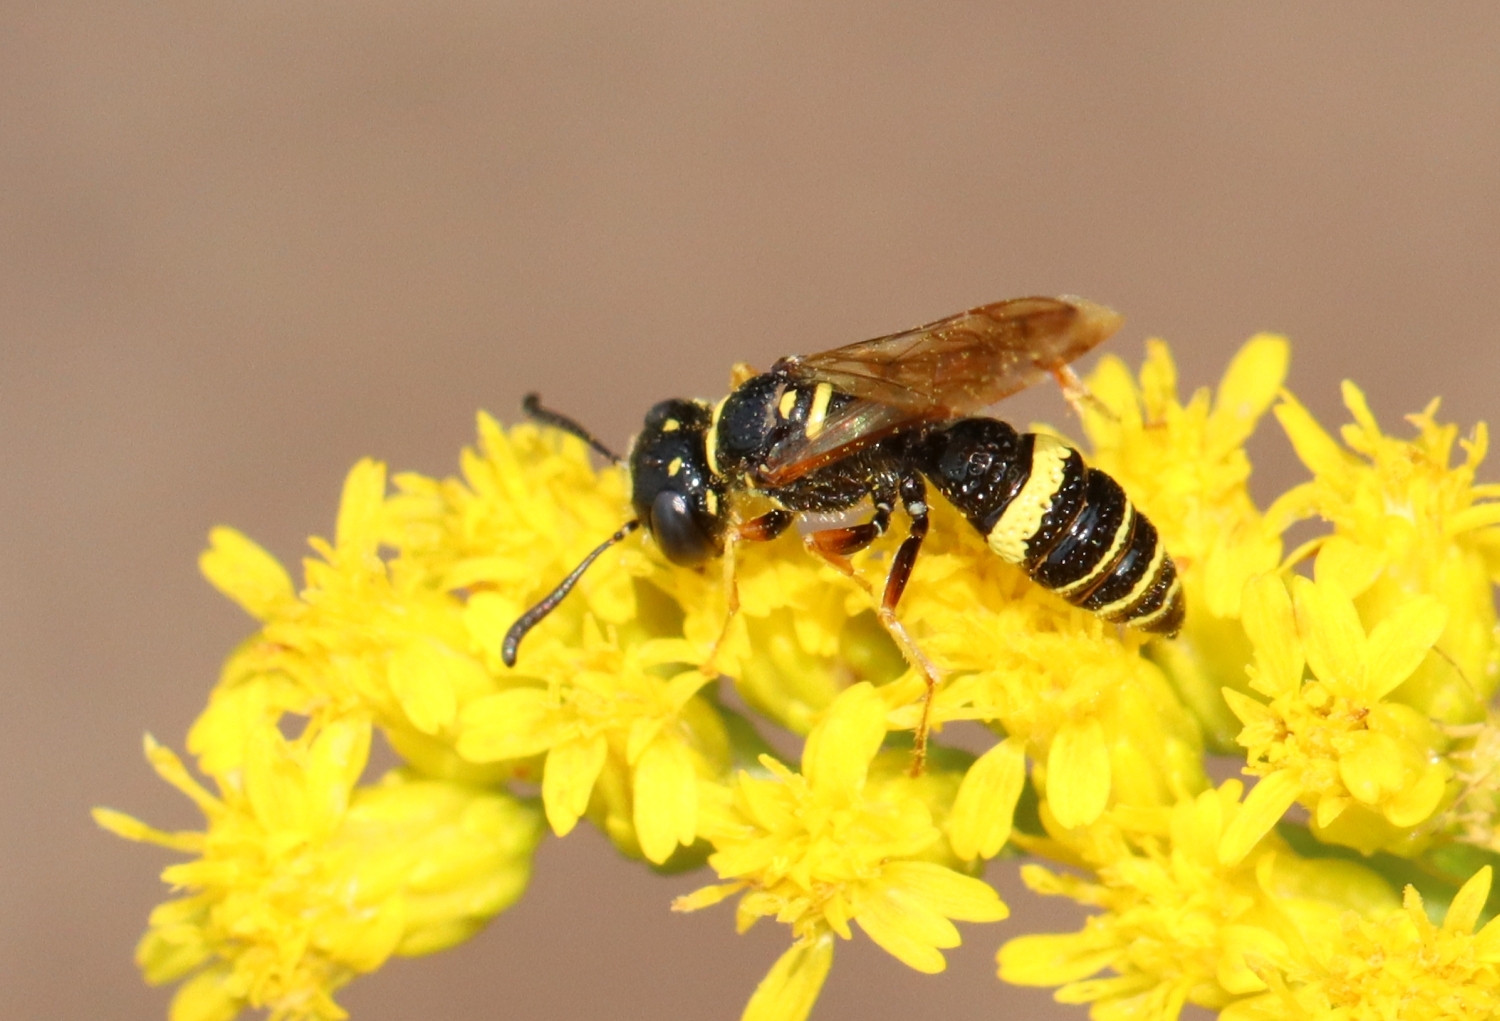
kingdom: Animalia
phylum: Arthropoda
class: Insecta
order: Hymenoptera
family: Crabronidae
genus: Philanthus
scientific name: Philanthus gibbosus
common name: Humped beewolf
